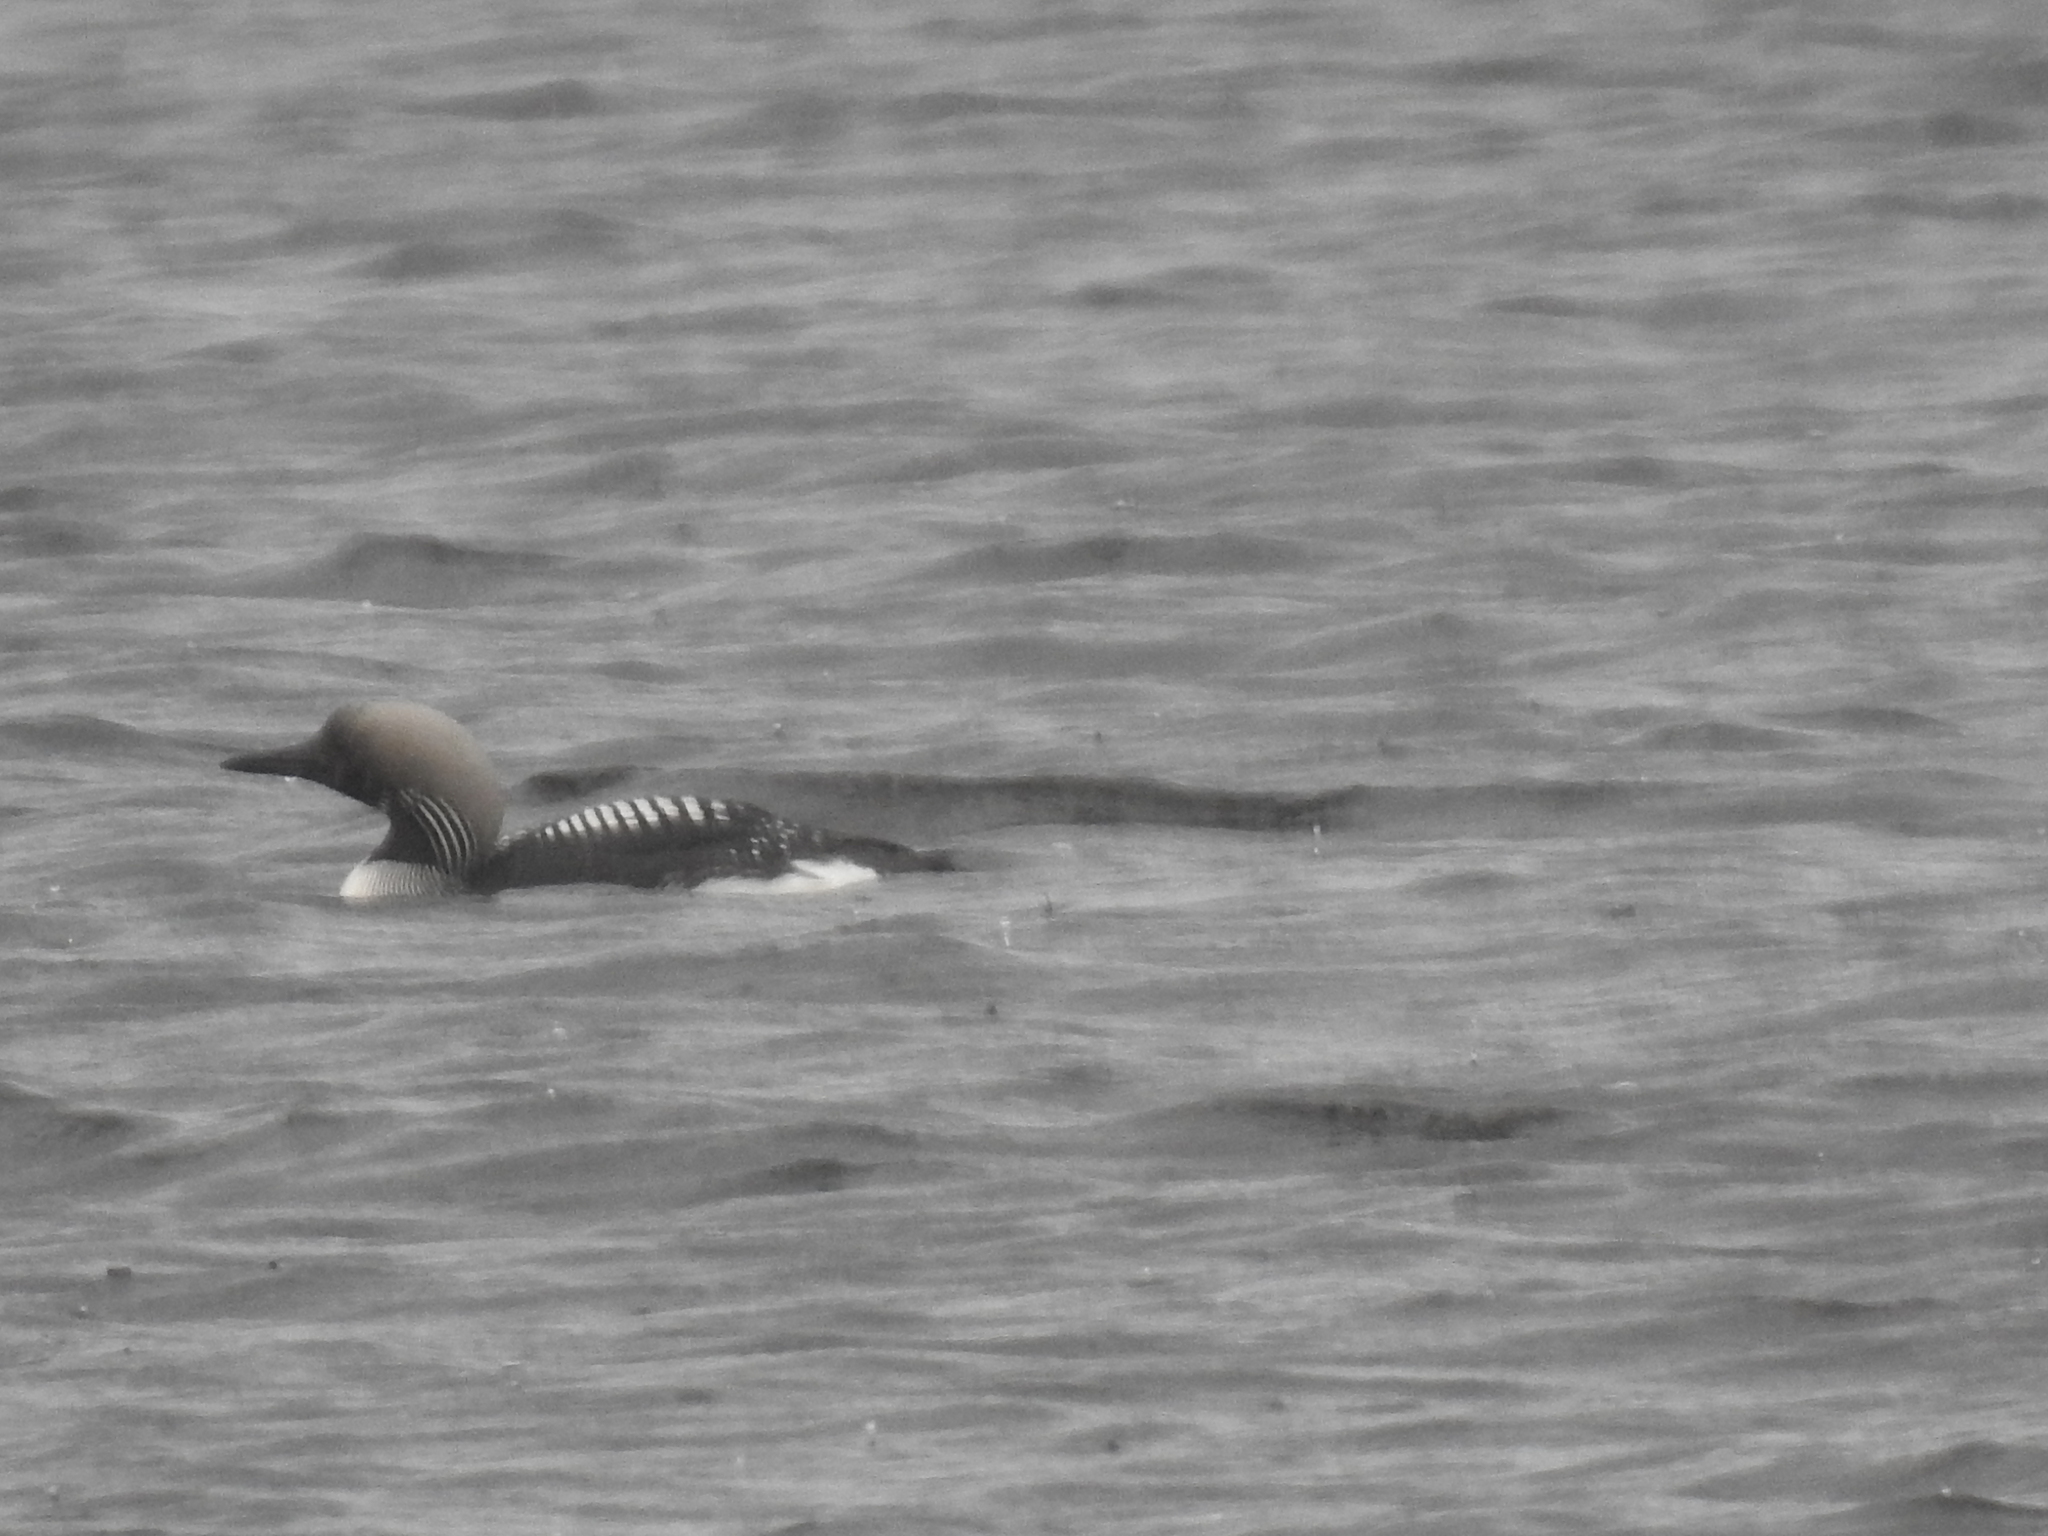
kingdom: Animalia
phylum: Chordata
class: Aves
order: Gaviiformes
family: Gaviidae
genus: Gavia
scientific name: Gavia arctica
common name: Black-throated loon
